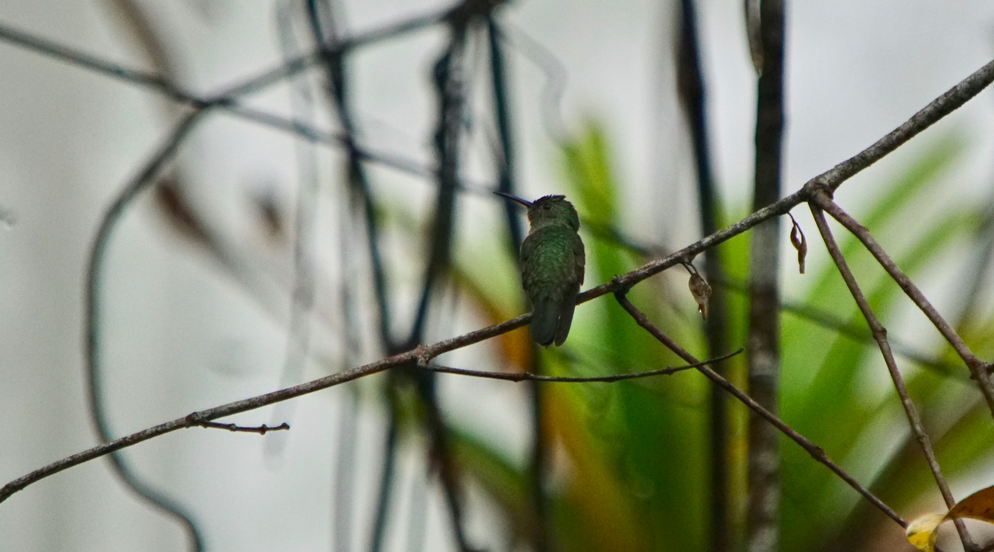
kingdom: Animalia
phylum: Chordata
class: Aves
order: Apodiformes
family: Trochilidae
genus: Phaeochroa
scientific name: Phaeochroa cuvierii
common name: Scaly-breasted hummingbird
